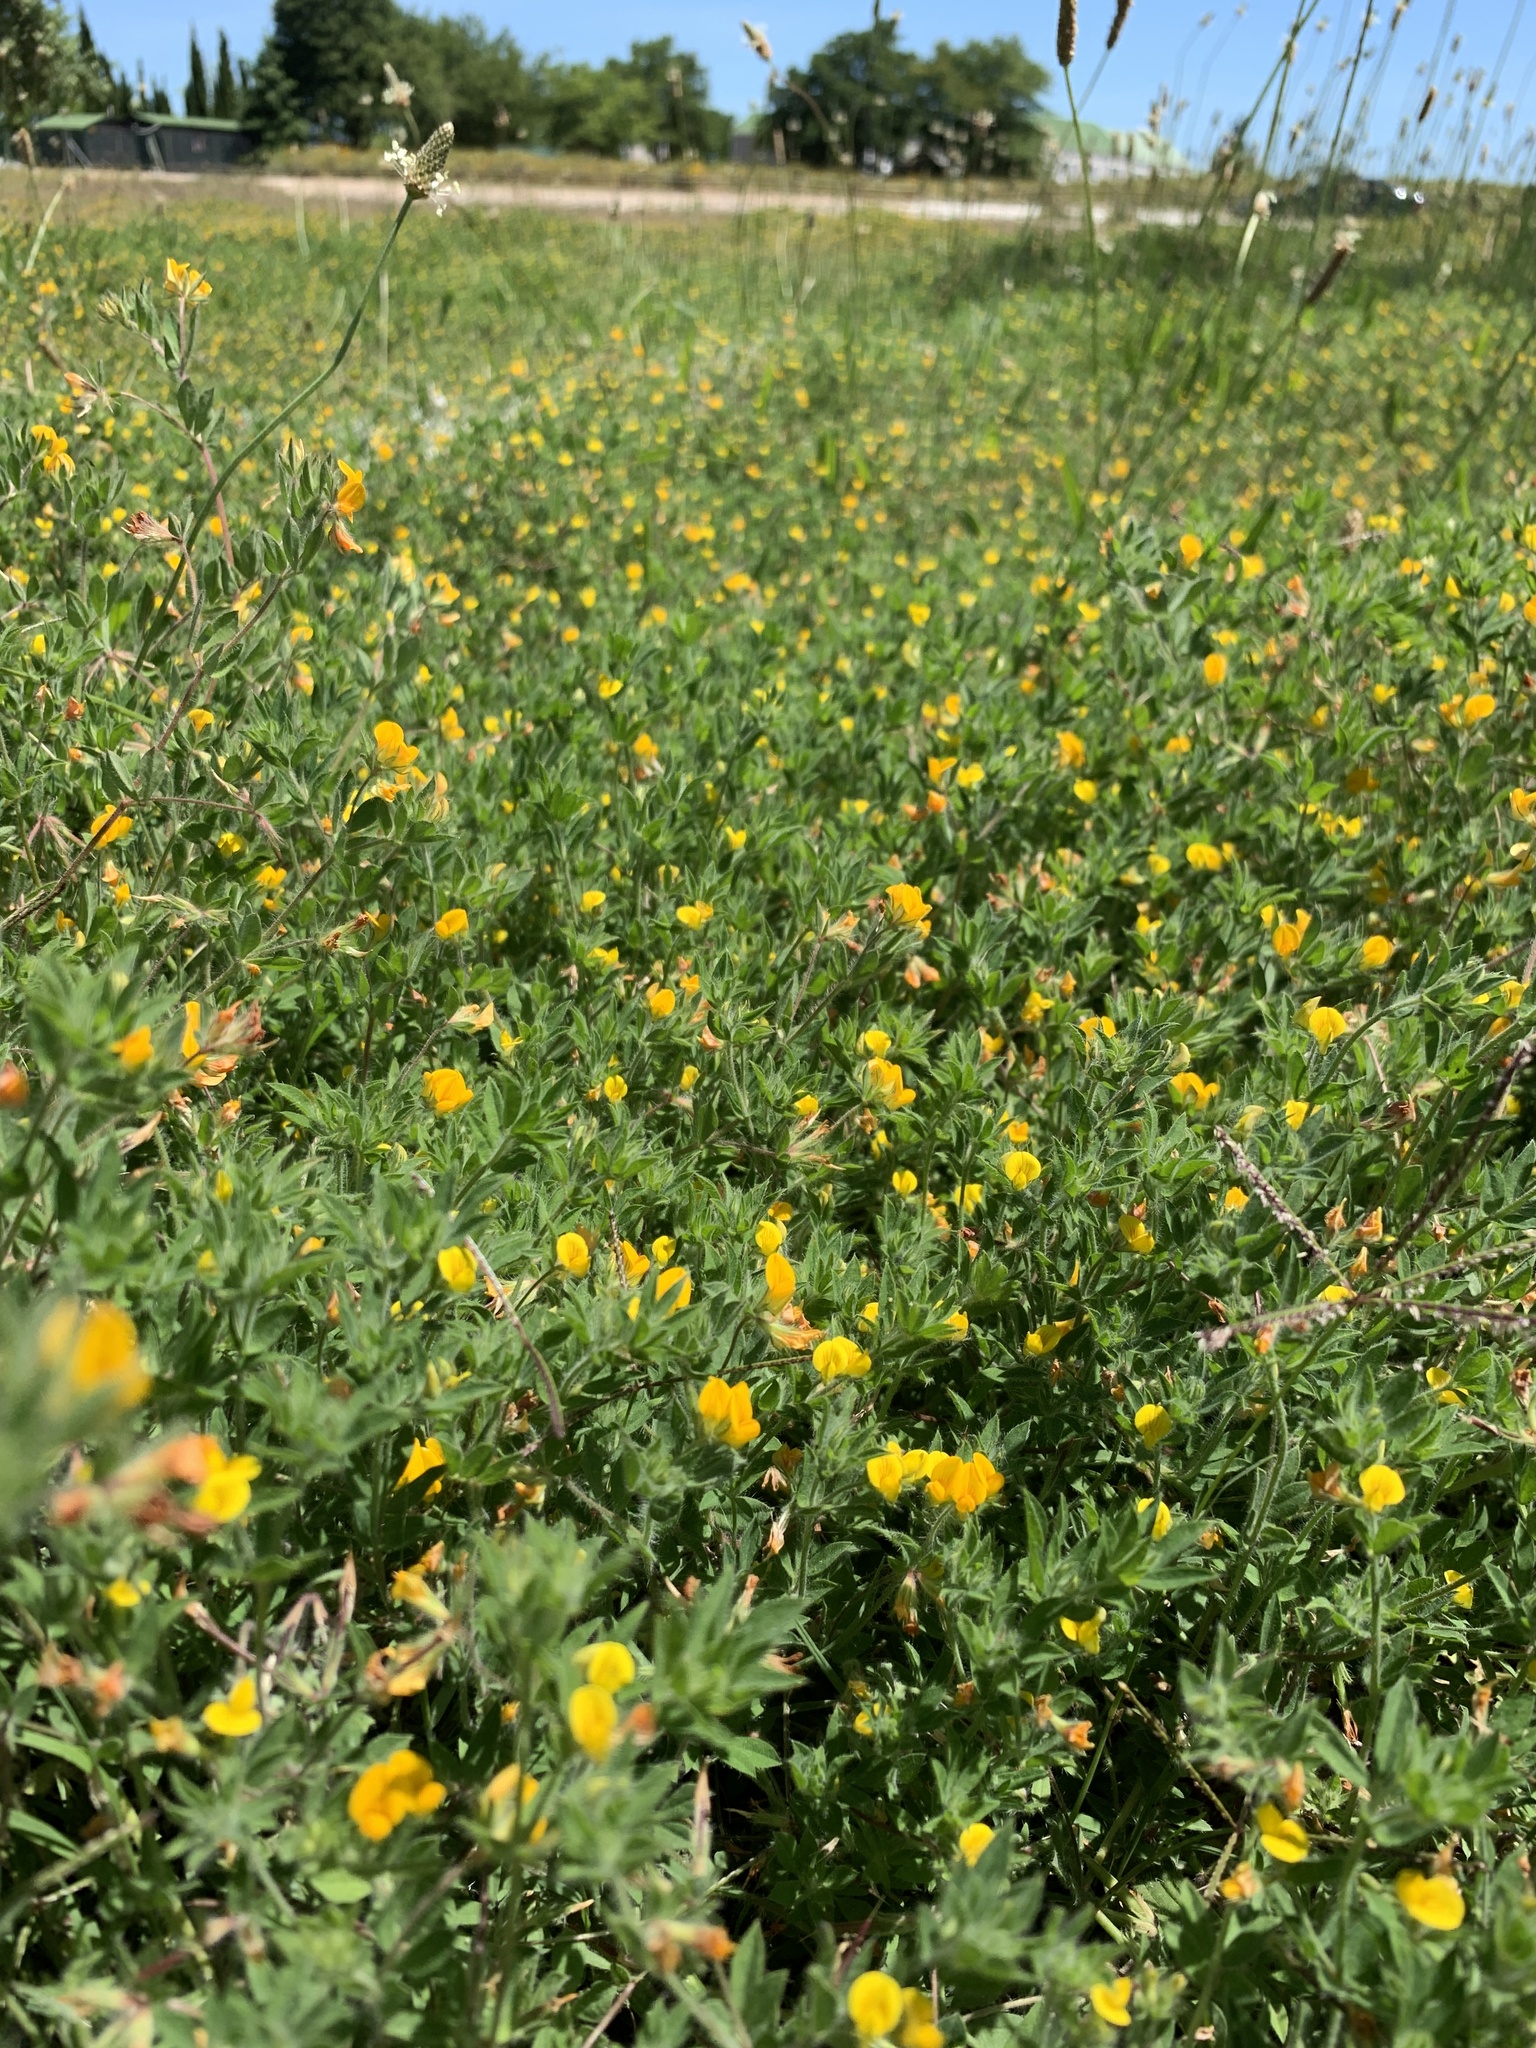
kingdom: Plantae
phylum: Tracheophyta
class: Magnoliopsida
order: Fabales
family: Fabaceae
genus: Lotus
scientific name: Lotus subbiflorus
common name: Hairy bird's-foot trefoil
